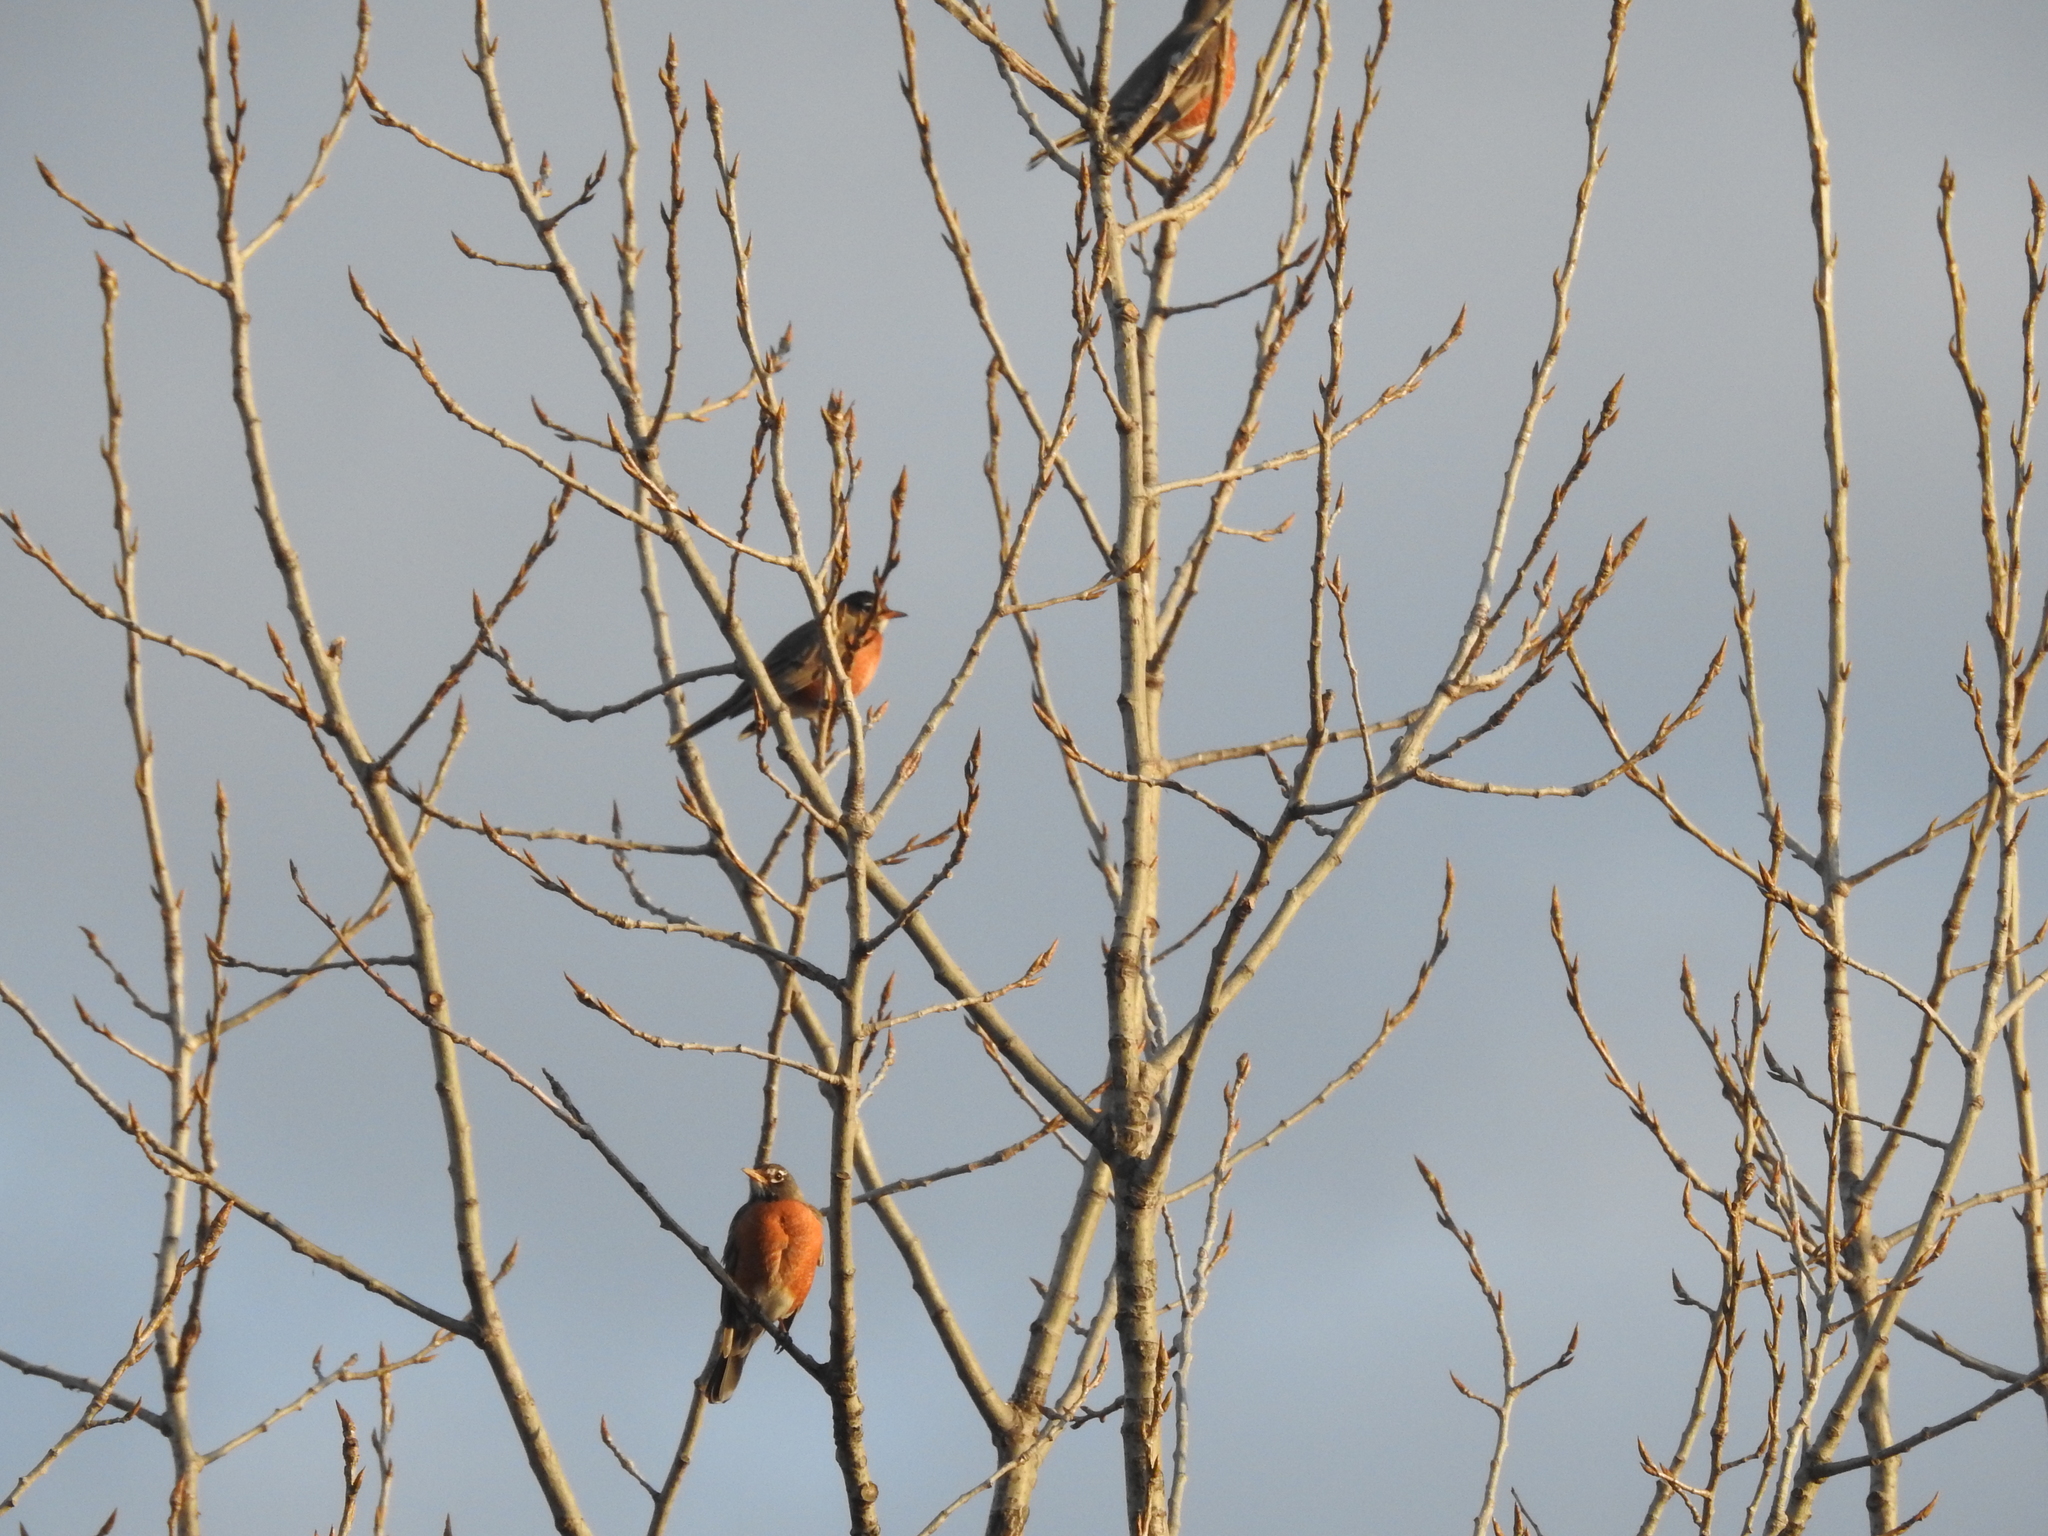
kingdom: Animalia
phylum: Chordata
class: Aves
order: Passeriformes
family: Turdidae
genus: Turdus
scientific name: Turdus migratorius
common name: American robin
